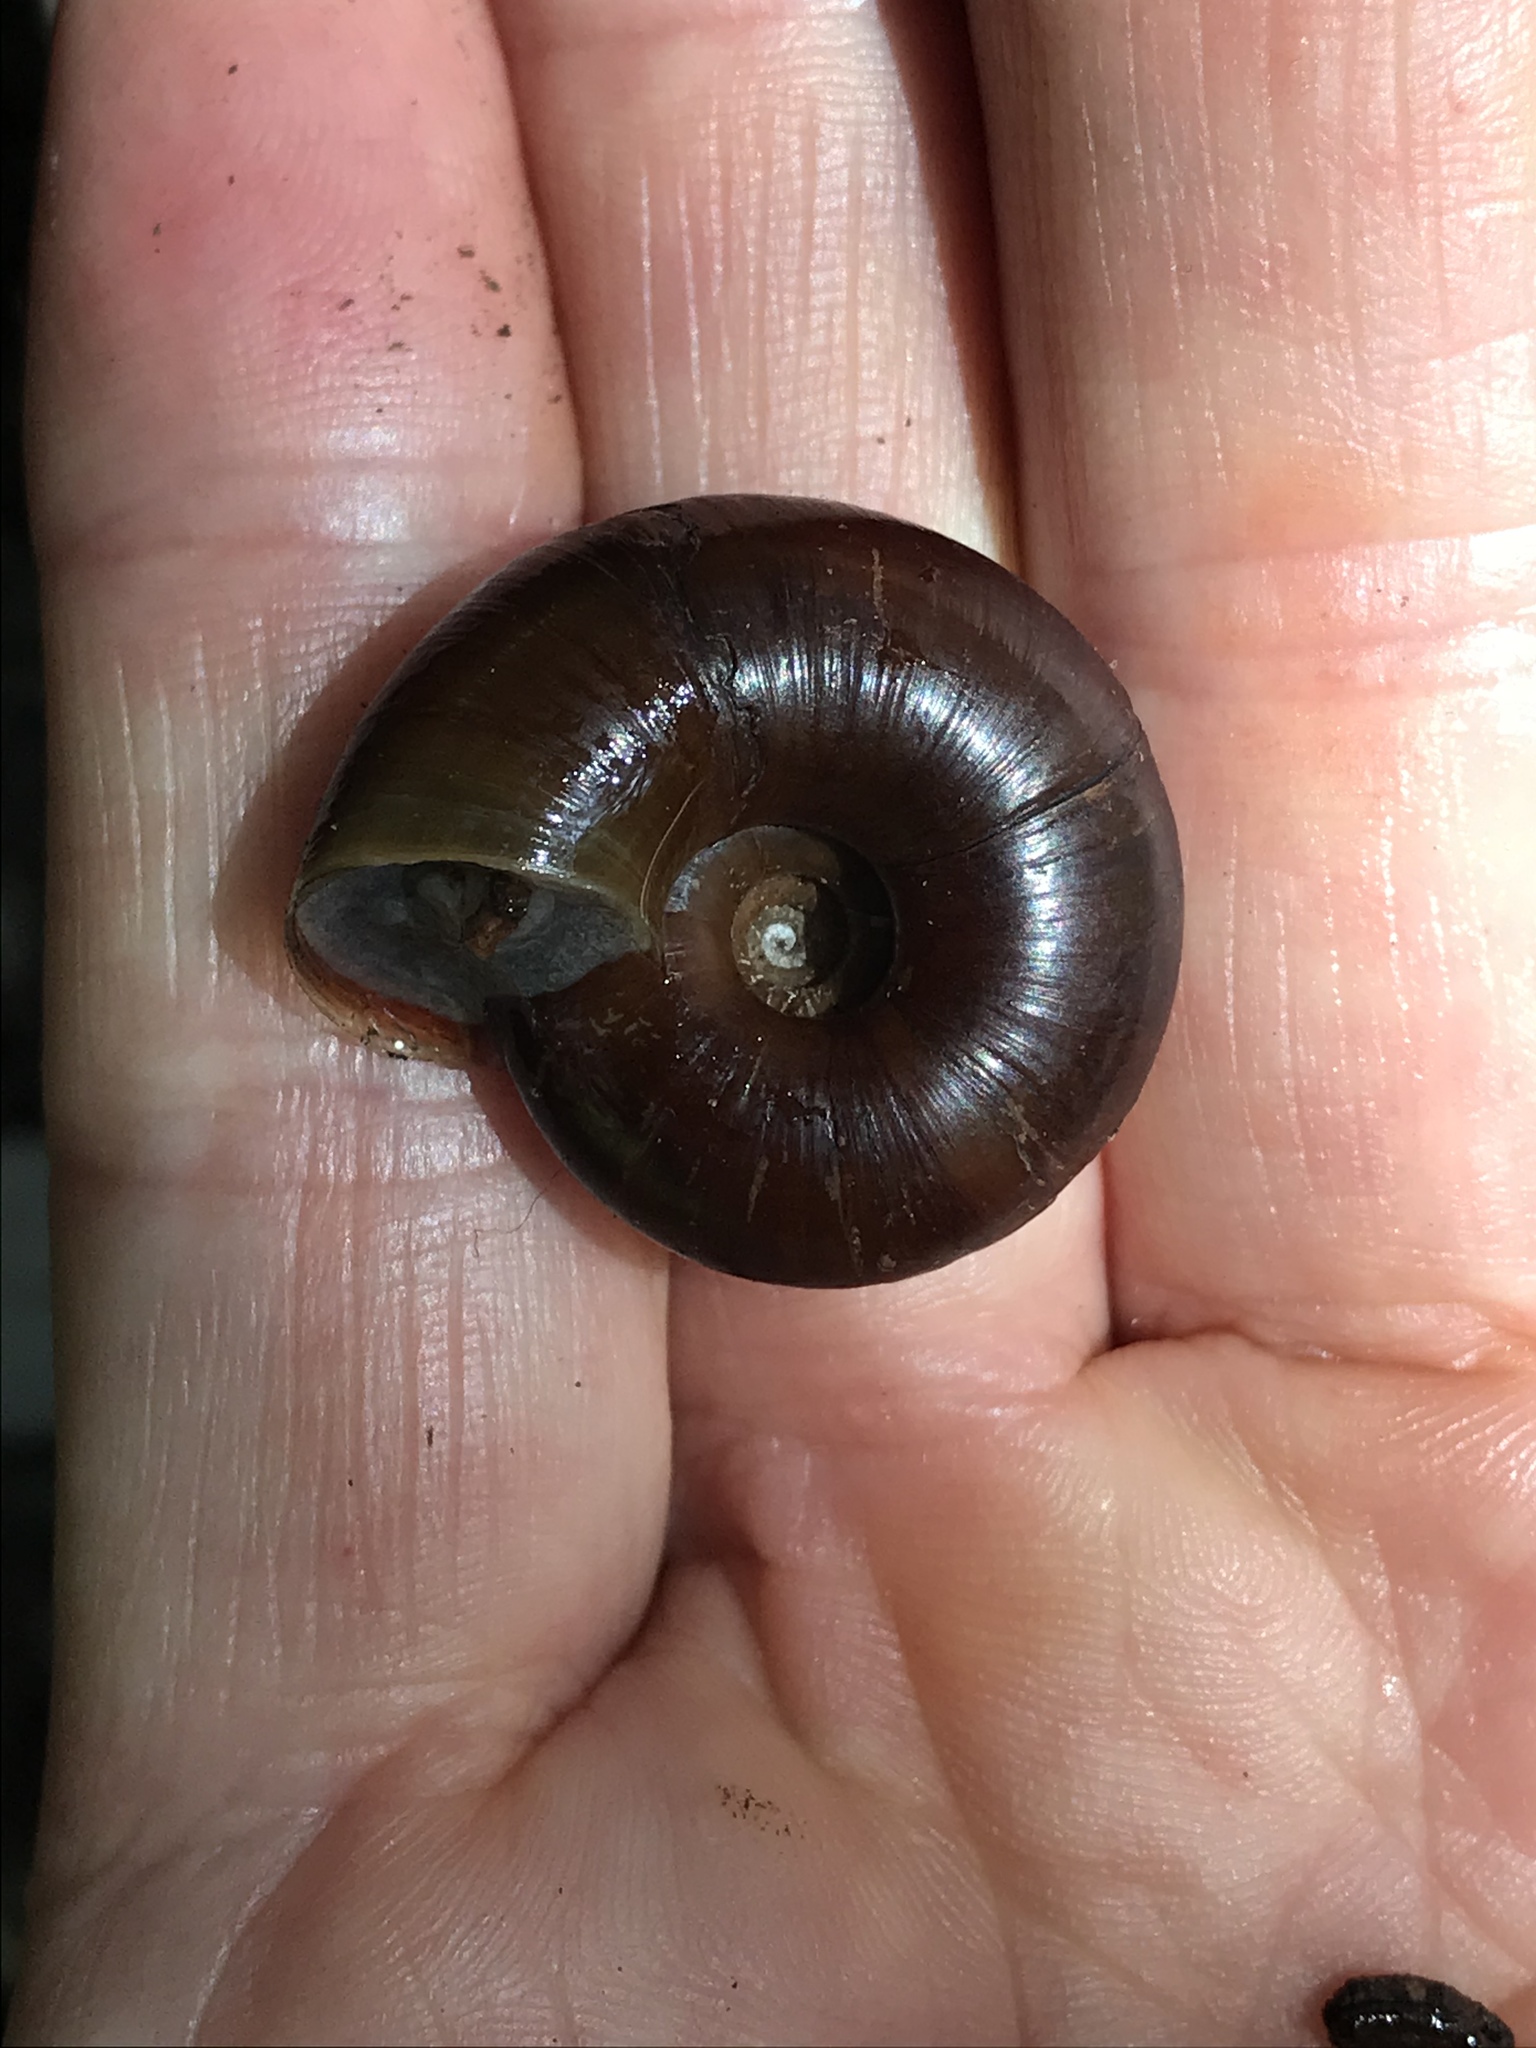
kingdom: Animalia
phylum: Mollusca
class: Gastropoda
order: Stylommatophora
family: Megomphicidae
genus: Glyptostoma
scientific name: Glyptostoma gabrielense
